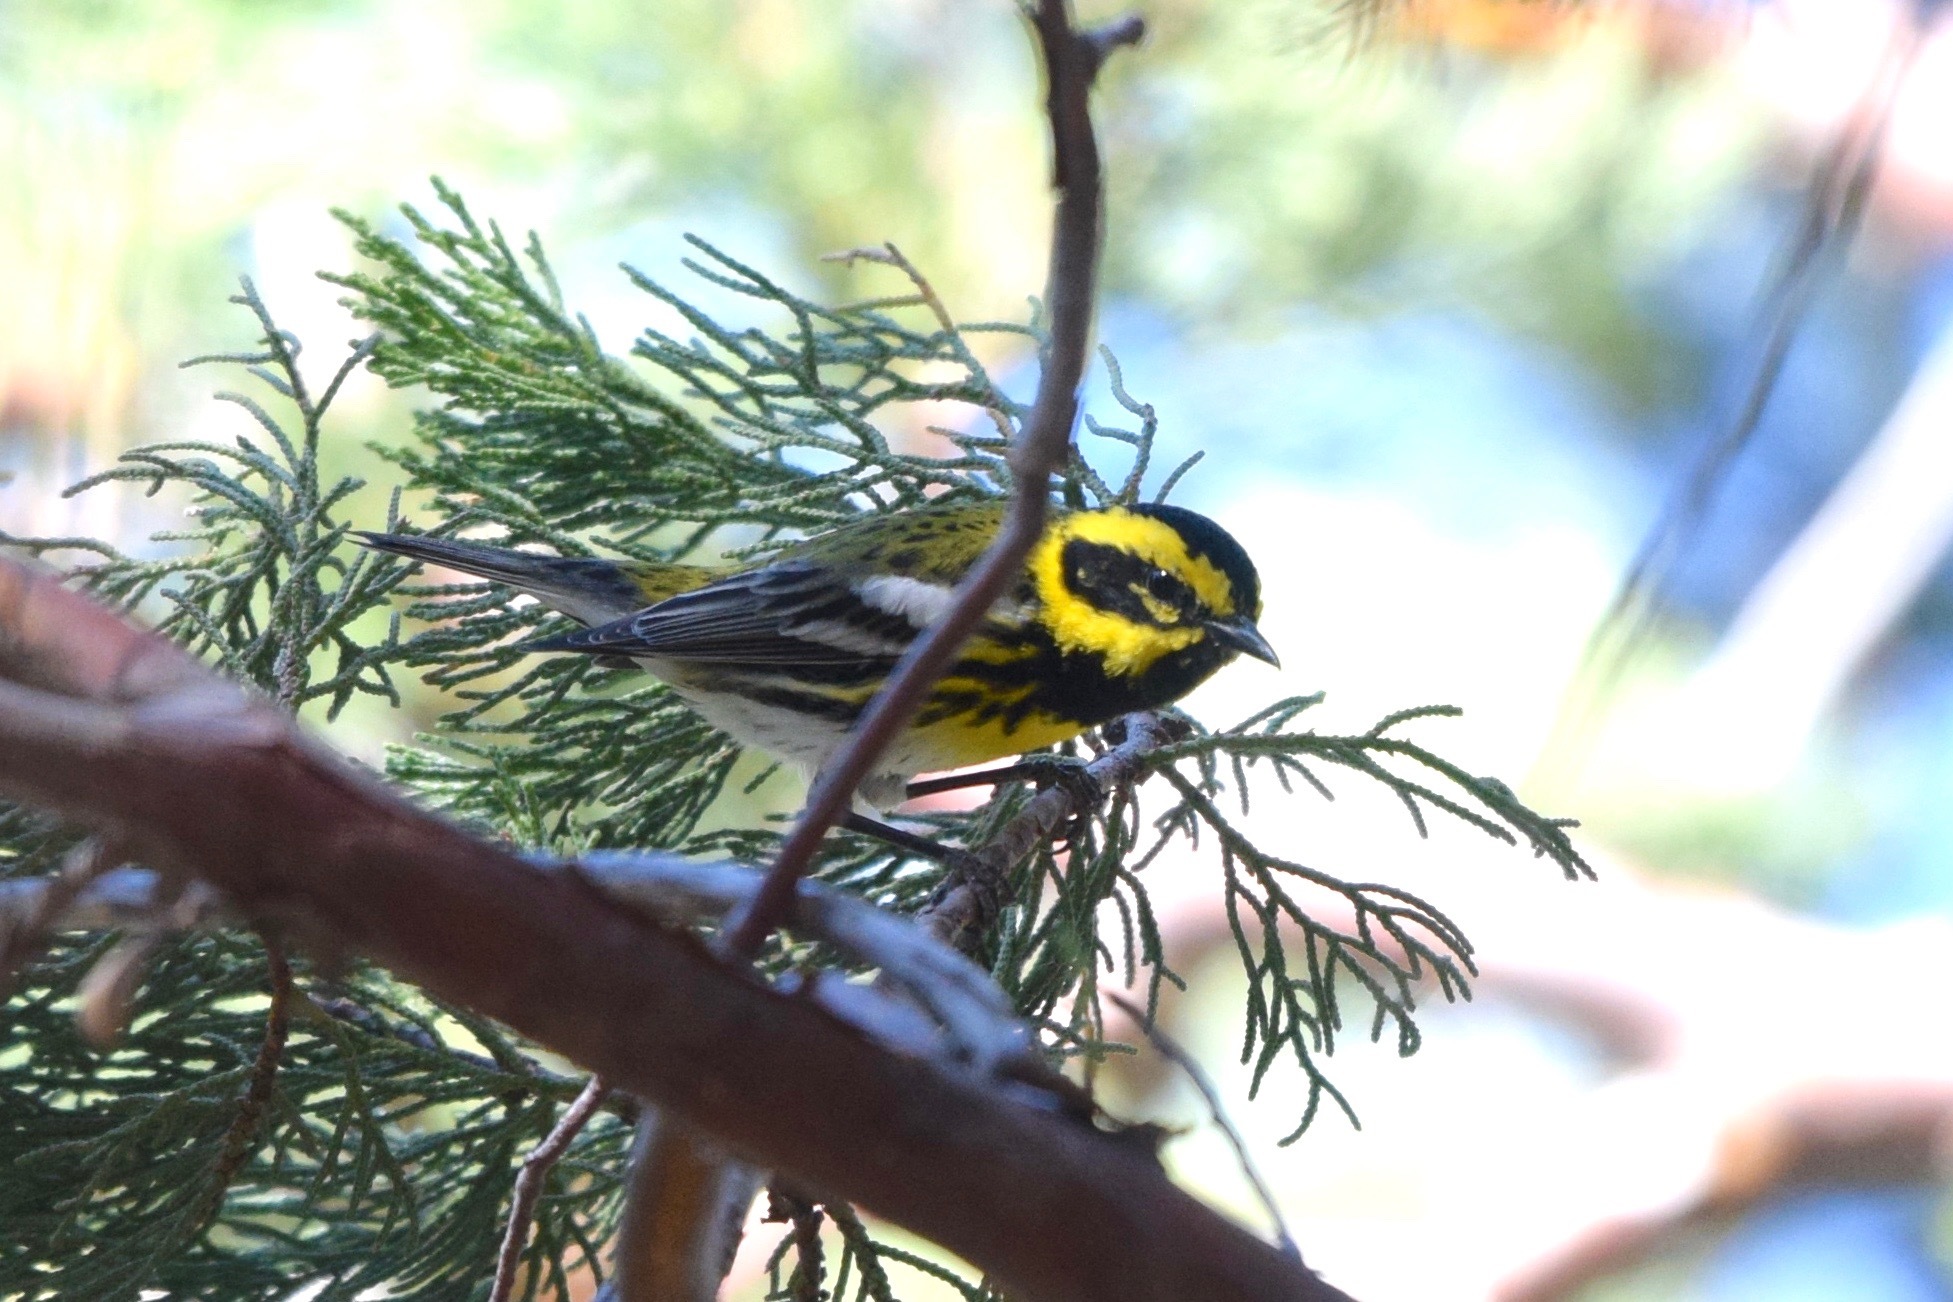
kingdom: Animalia
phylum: Chordata
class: Aves
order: Passeriformes
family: Parulidae
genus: Setophaga
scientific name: Setophaga townsendi
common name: Townsend's warbler
